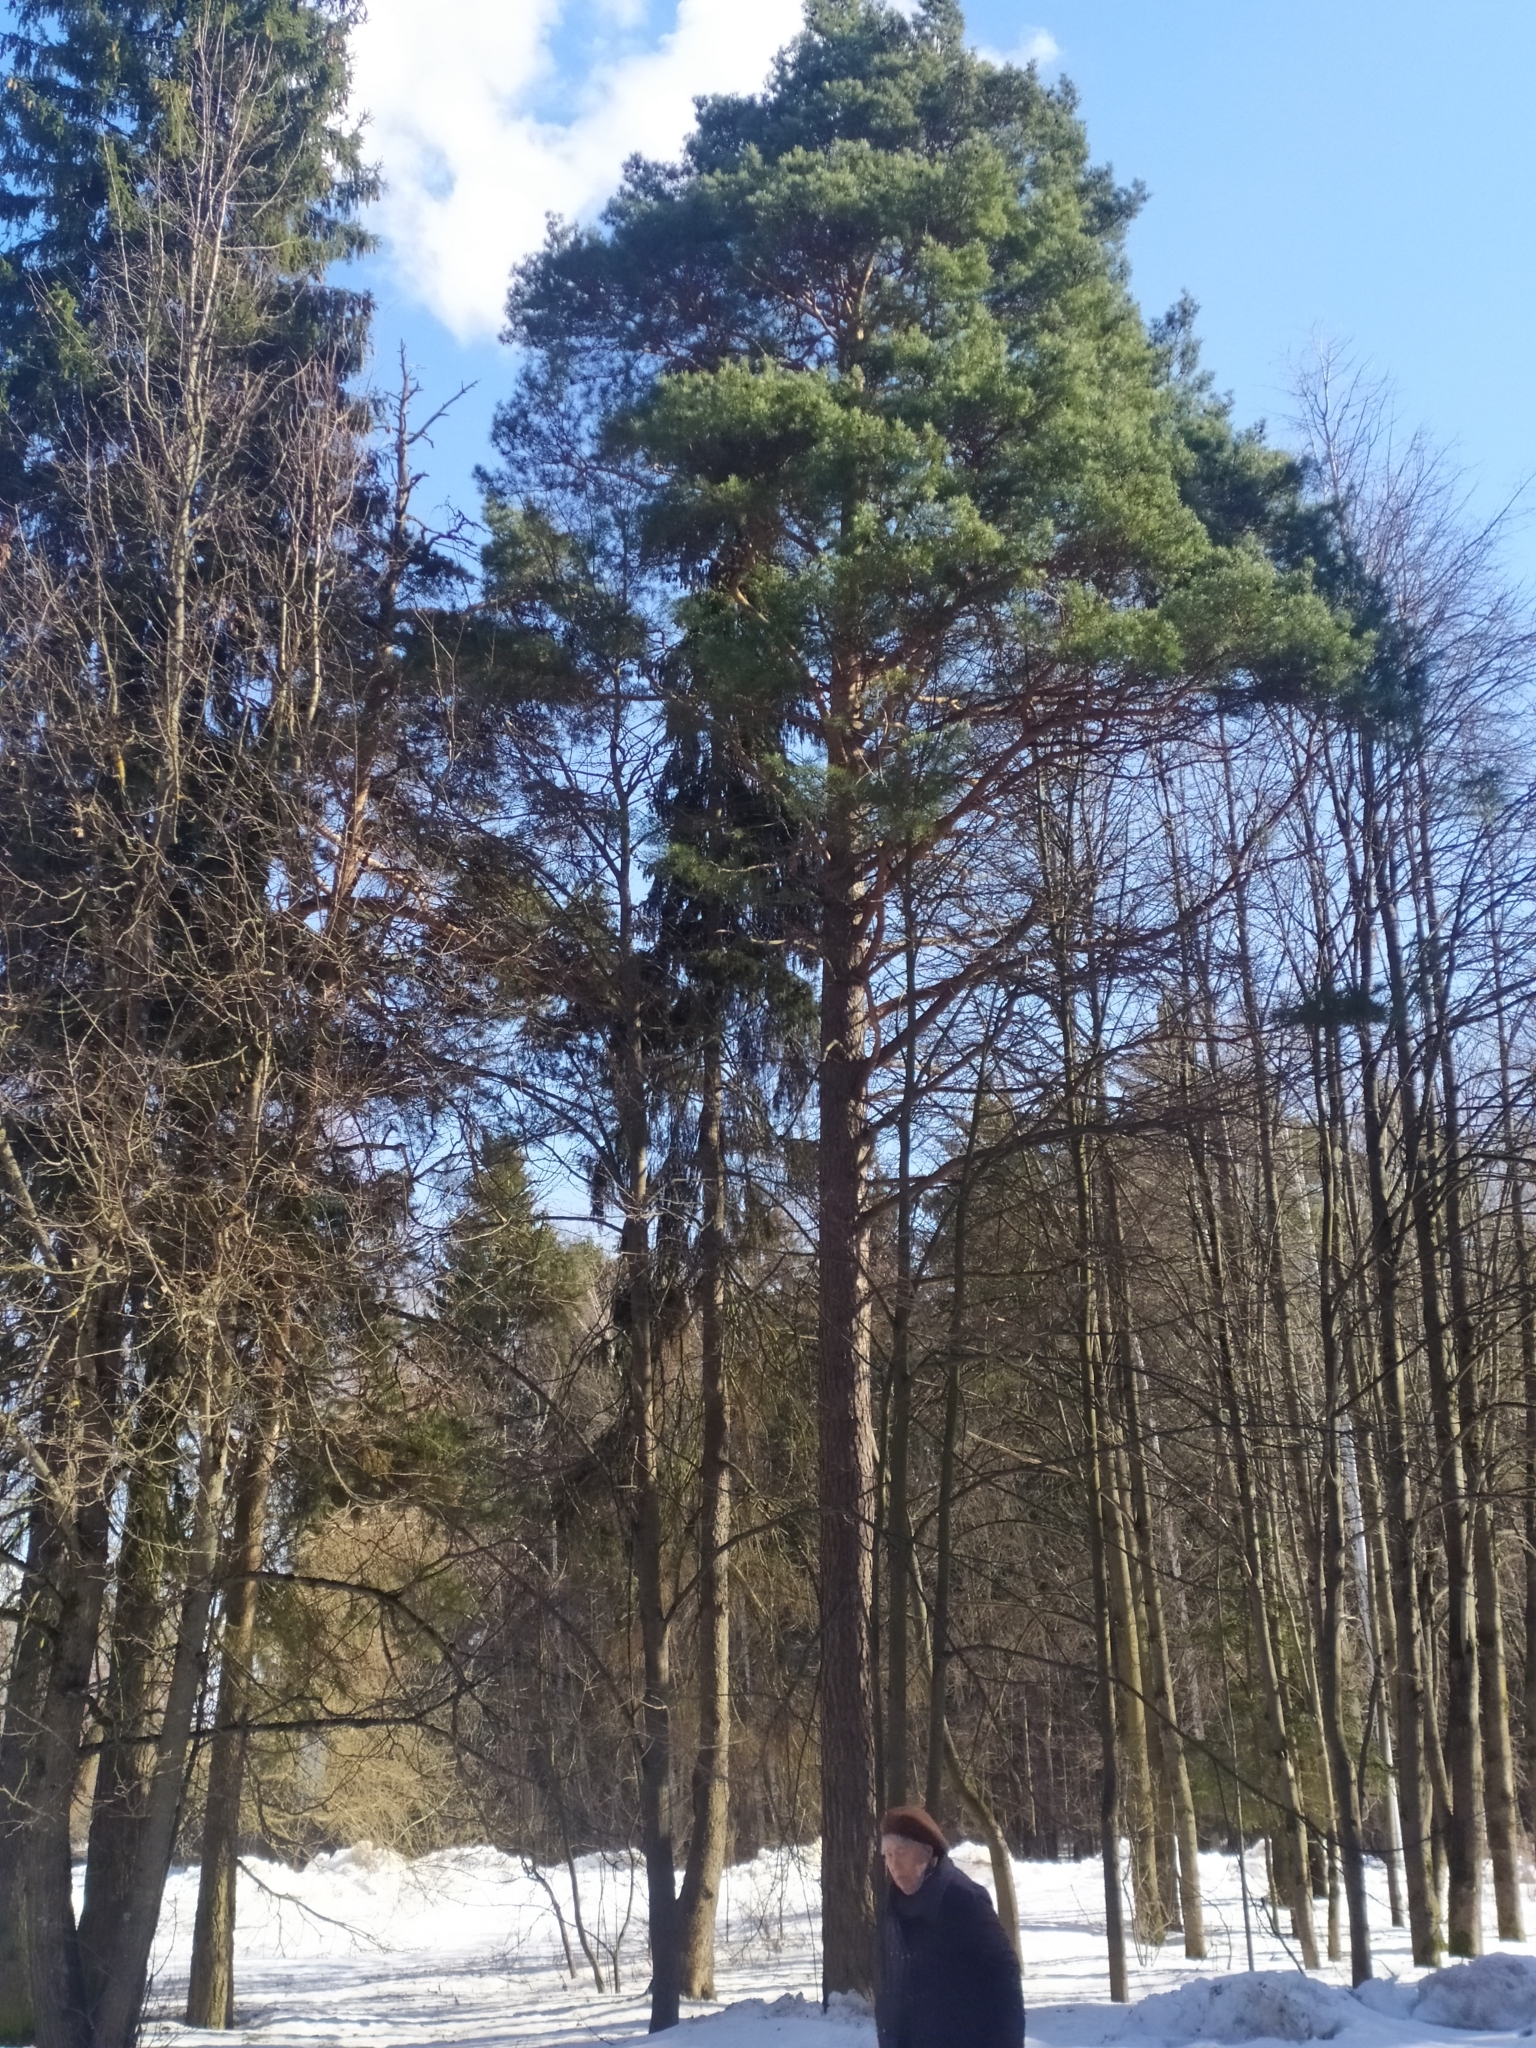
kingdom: Plantae
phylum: Tracheophyta
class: Pinopsida
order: Pinales
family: Pinaceae
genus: Pinus
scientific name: Pinus sylvestris
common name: Scots pine
